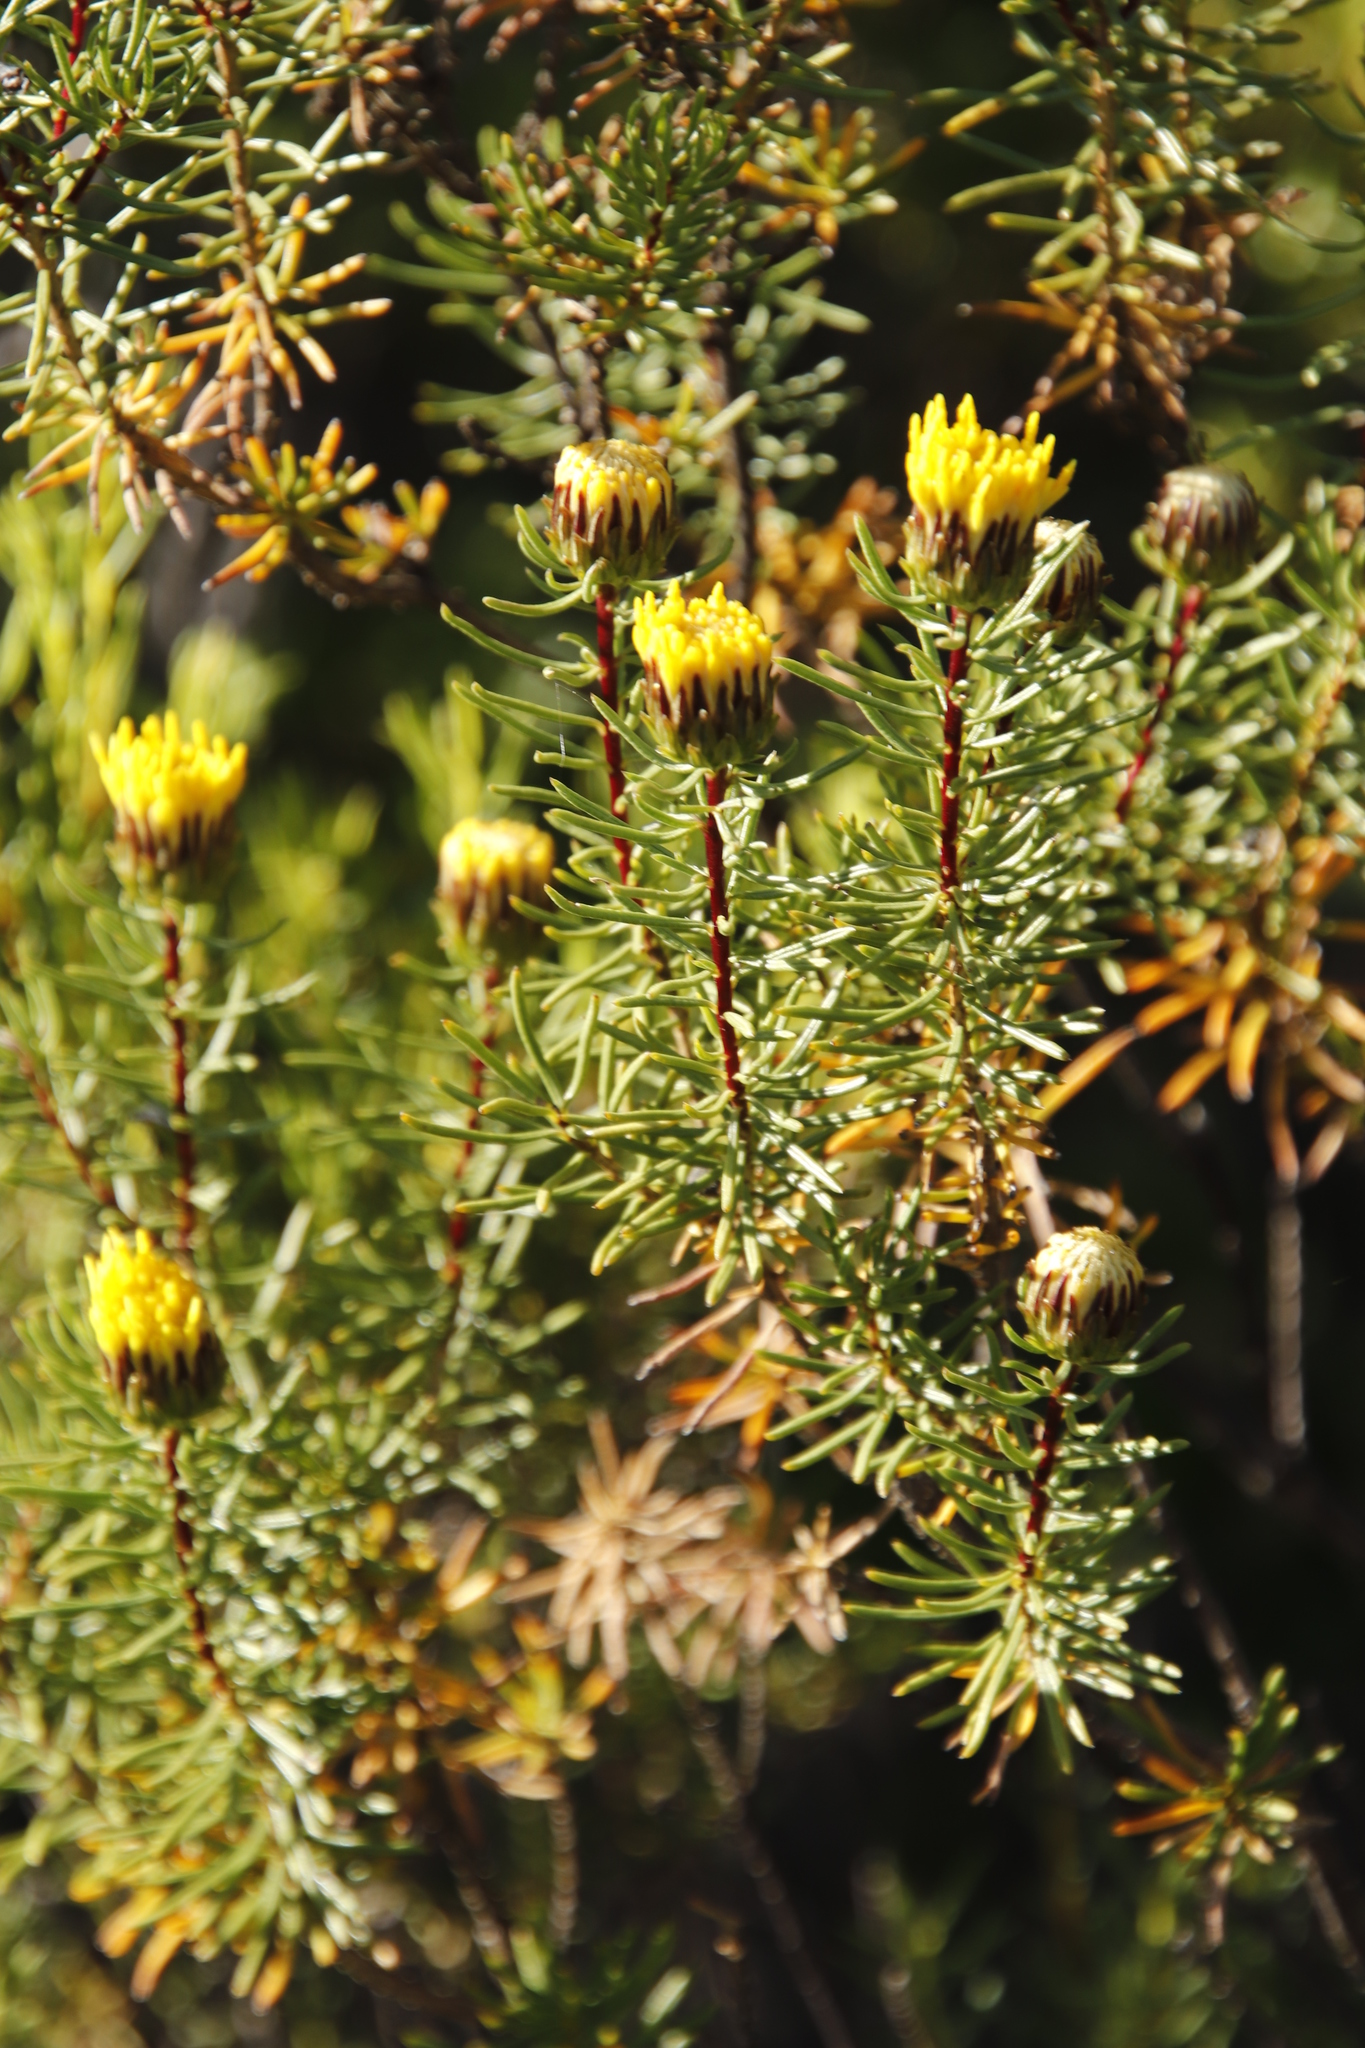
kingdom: Plantae
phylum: Tracheophyta
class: Magnoliopsida
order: Asterales
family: Asteraceae
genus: Pteronia
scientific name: Pteronia camphorata
